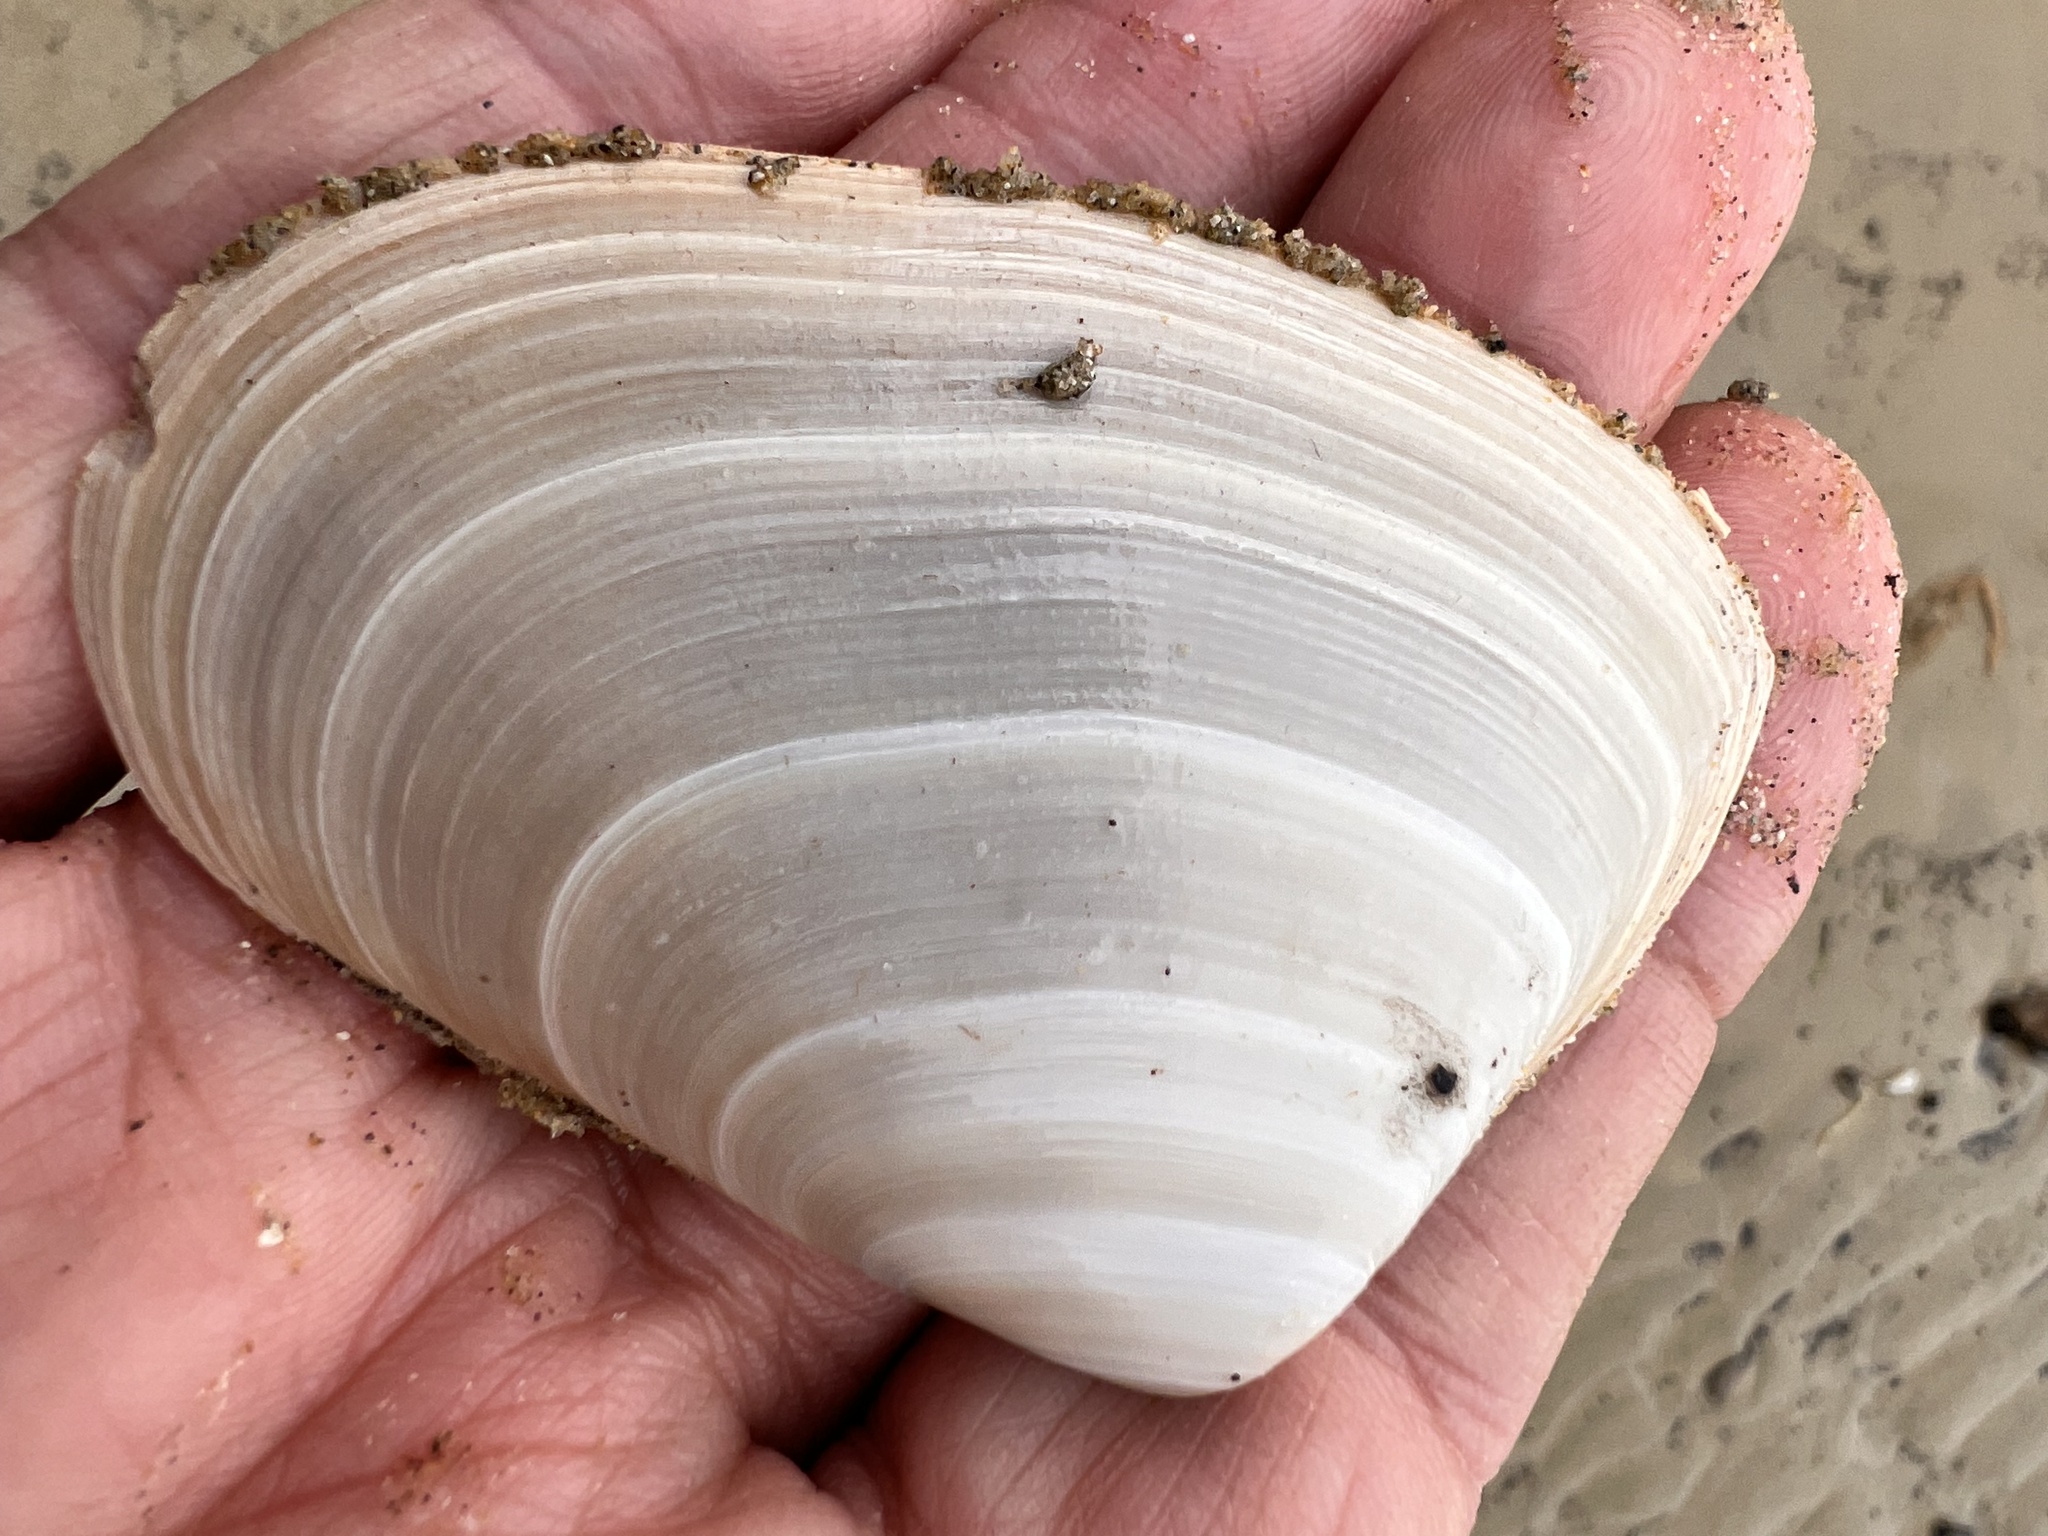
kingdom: Animalia
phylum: Mollusca
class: Bivalvia
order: Venerida
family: Mesodesmatidae
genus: Paphies
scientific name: Paphies donacina
